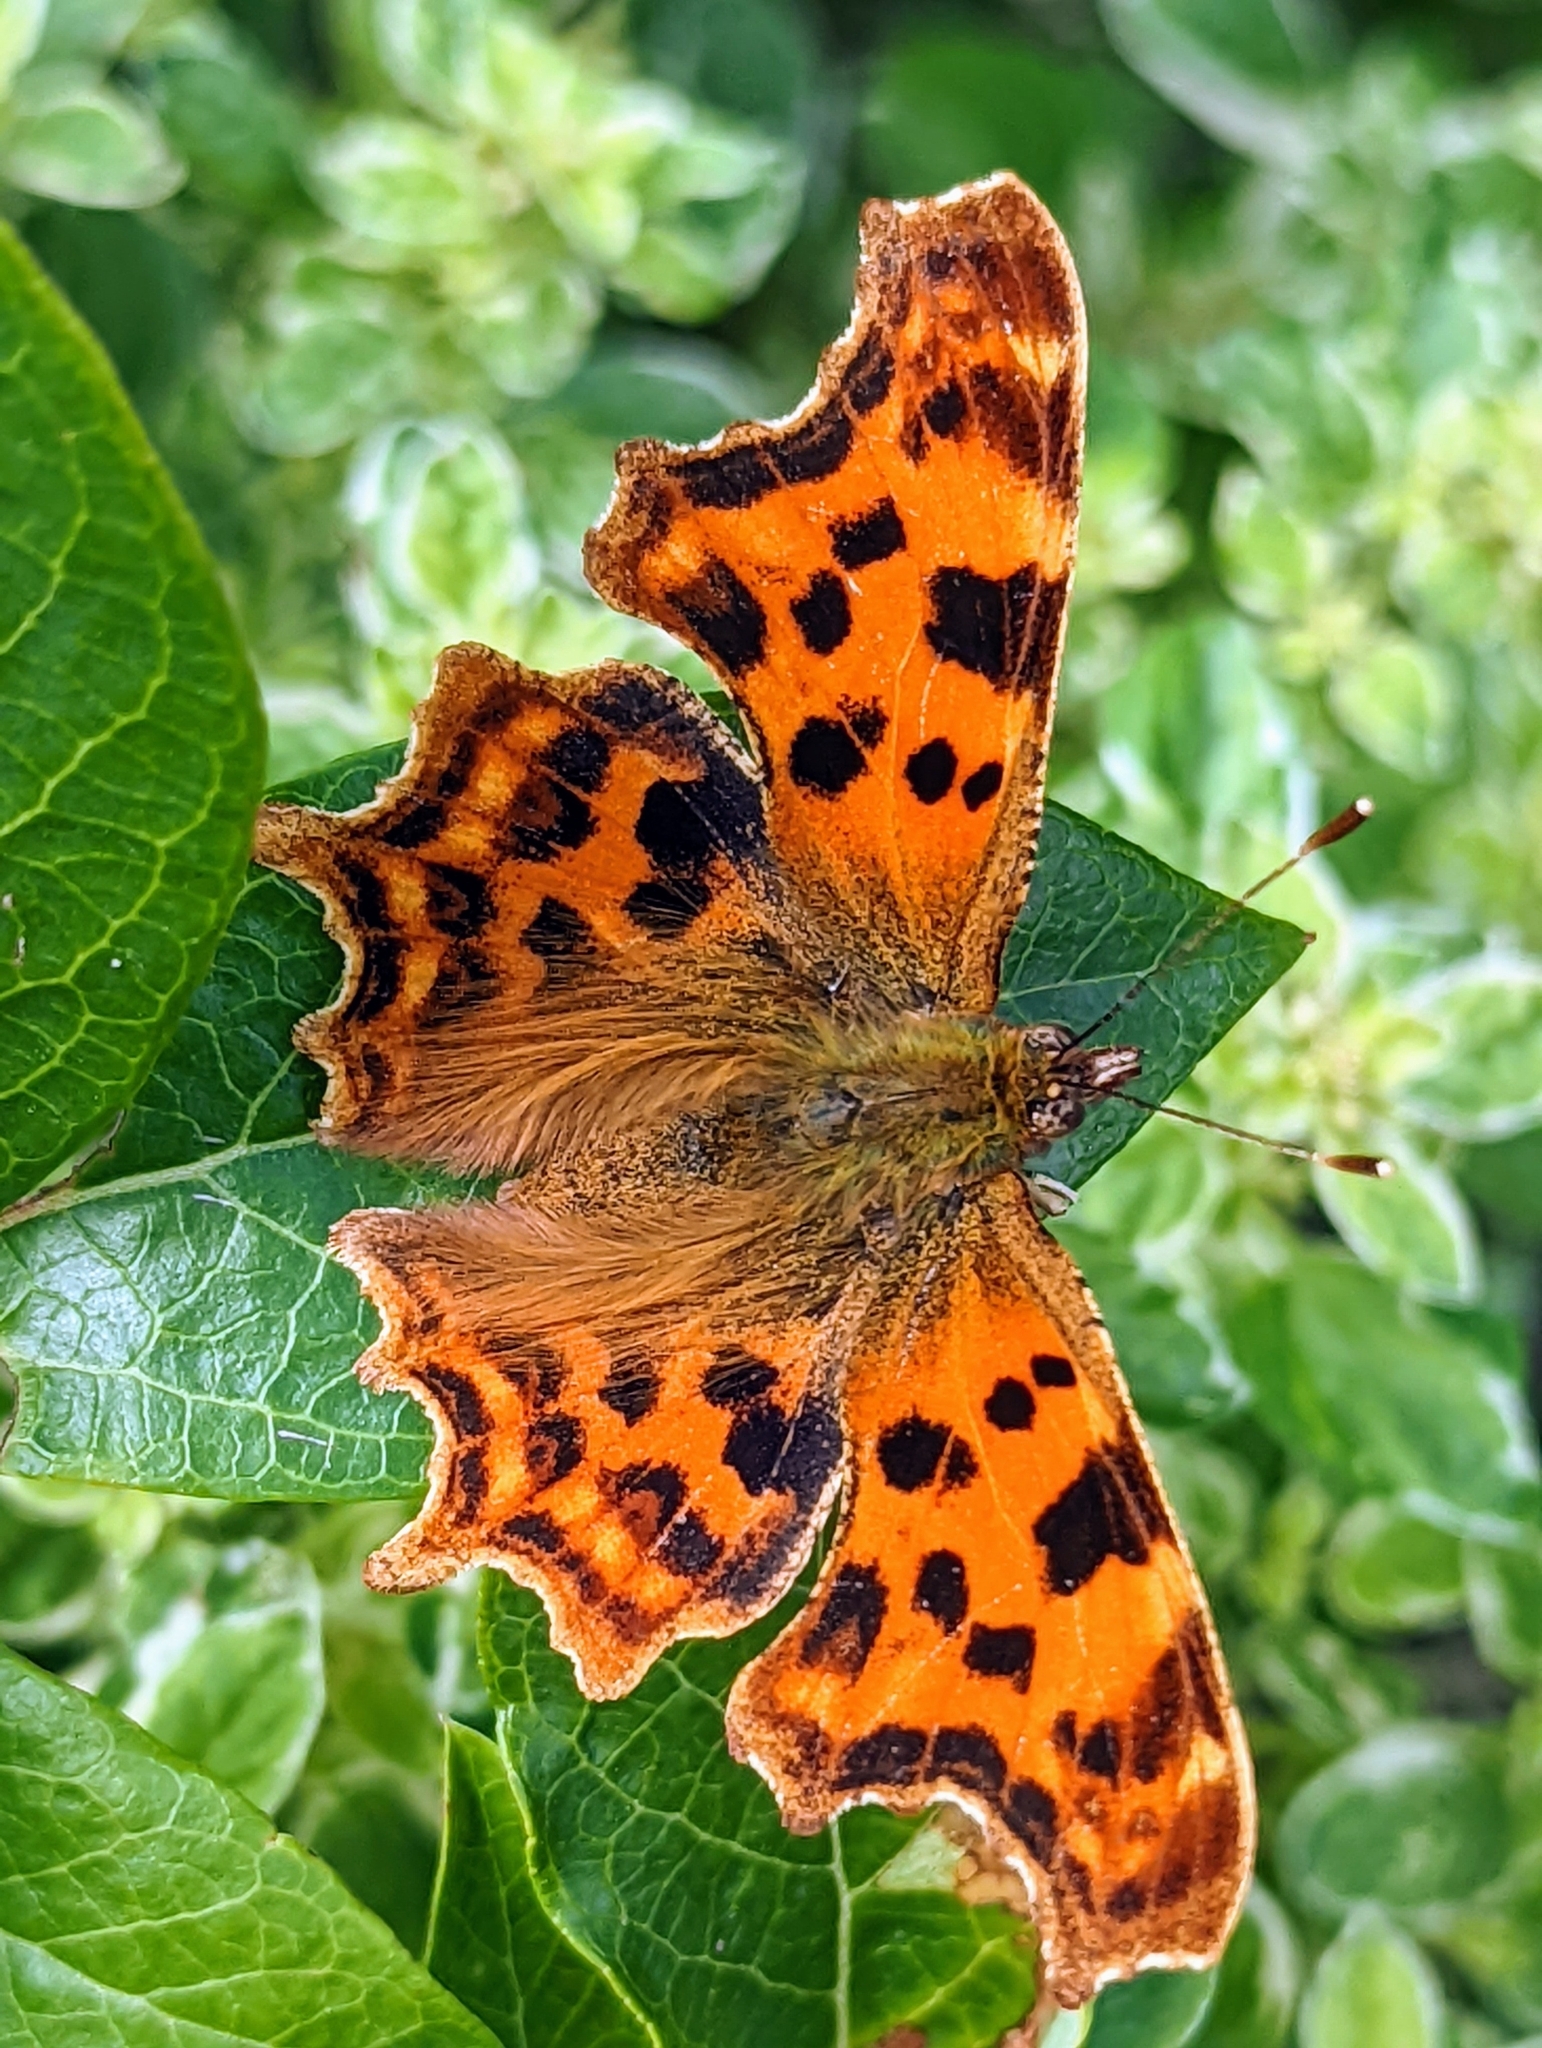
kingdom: Animalia
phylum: Arthropoda
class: Insecta
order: Lepidoptera
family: Nymphalidae
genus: Polygonia
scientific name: Polygonia c-album
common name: Comma
